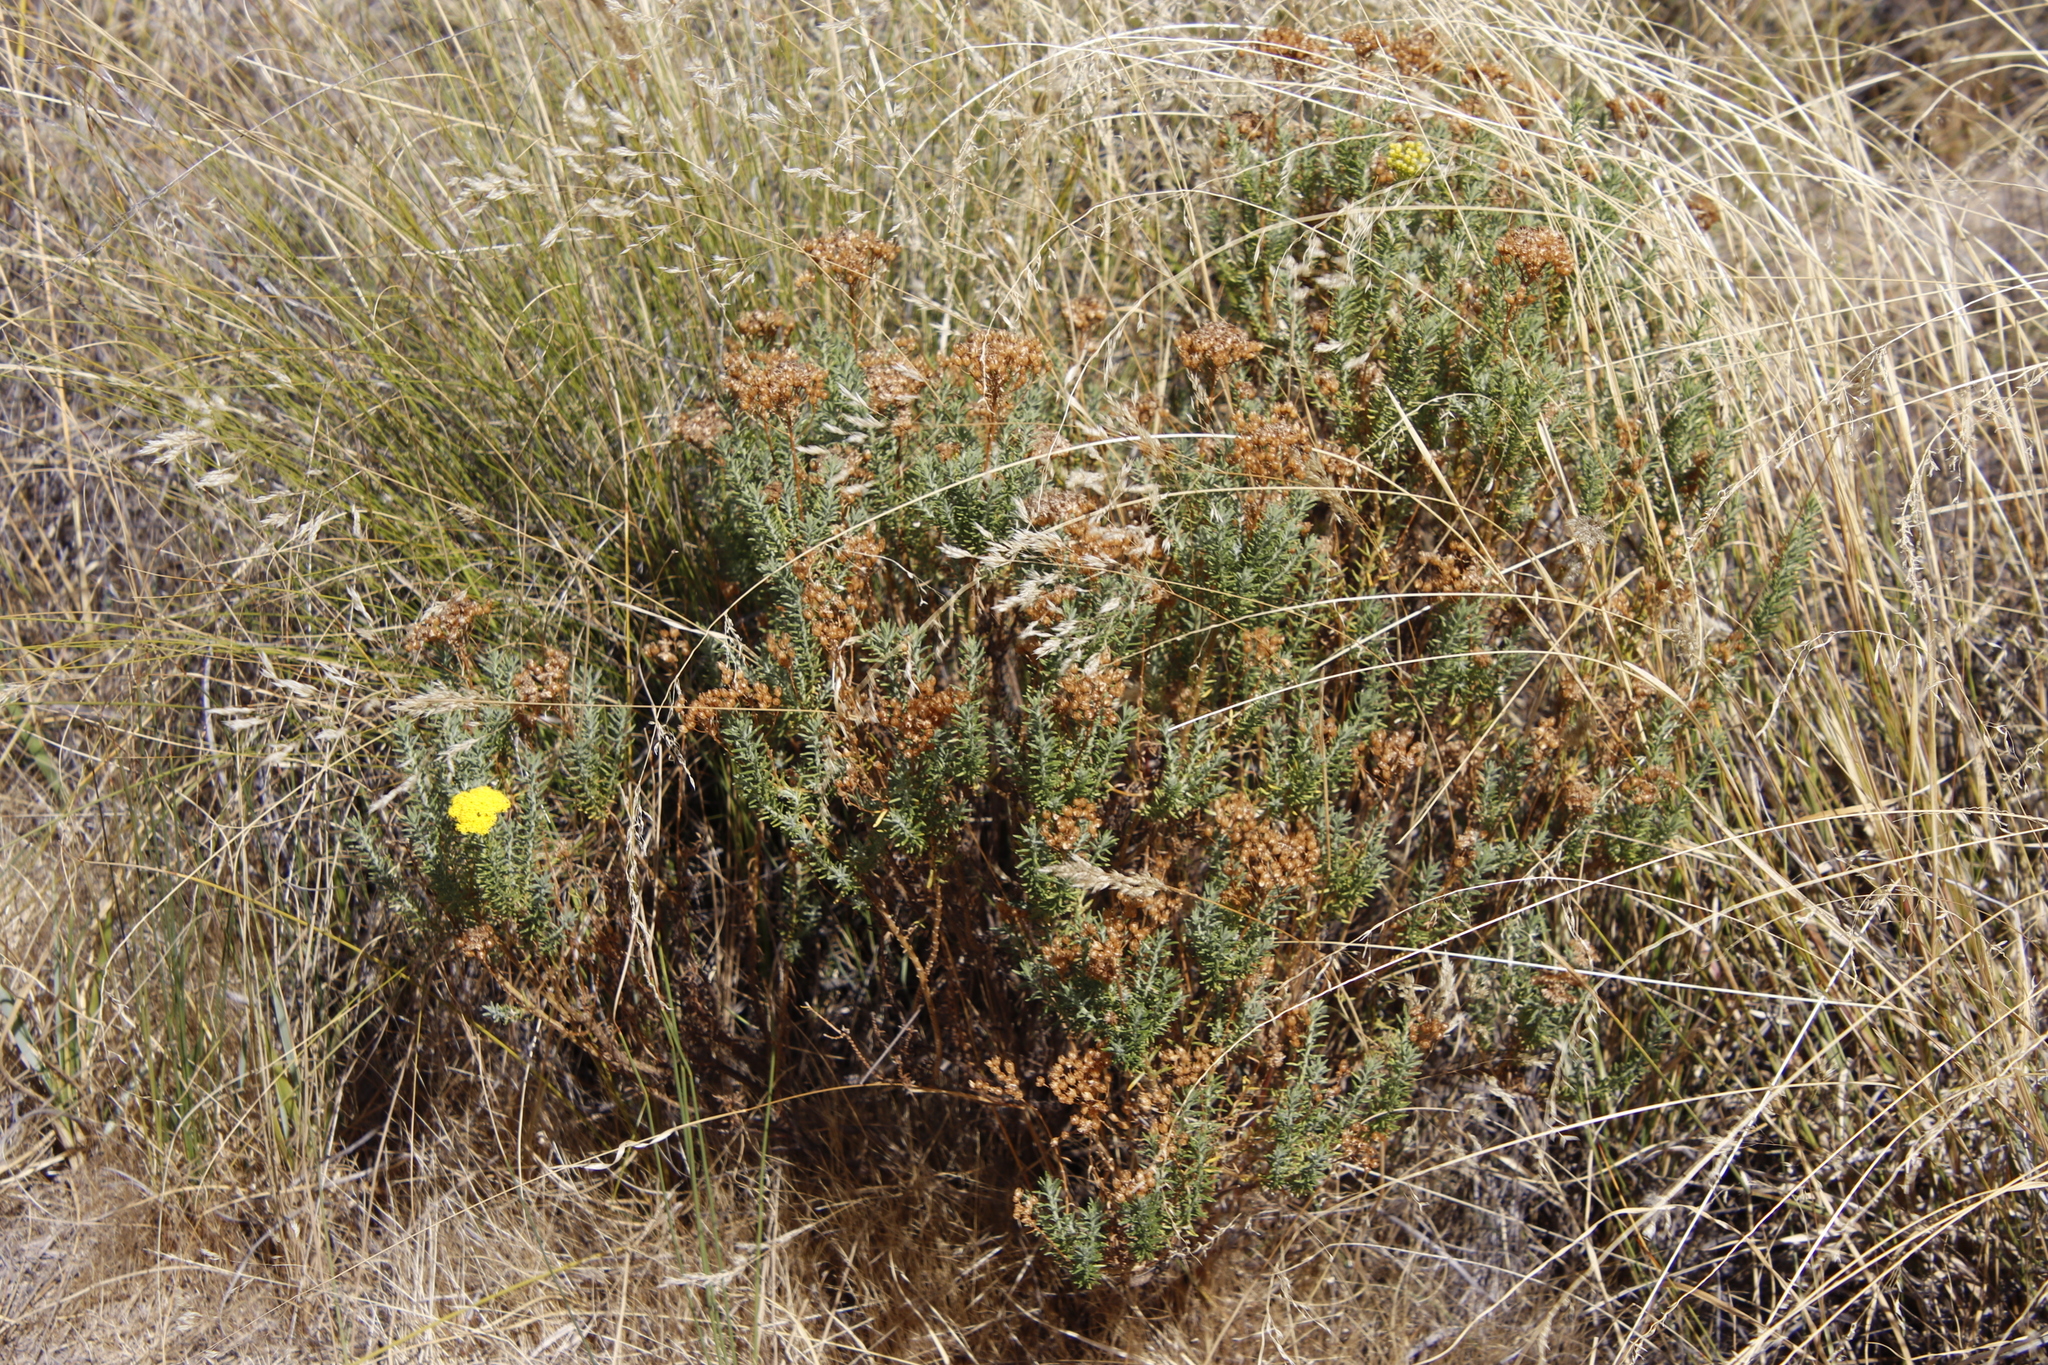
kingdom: Plantae
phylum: Tracheophyta
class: Magnoliopsida
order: Asterales
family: Asteraceae
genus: Athanasia
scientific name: Athanasia flexuosa
